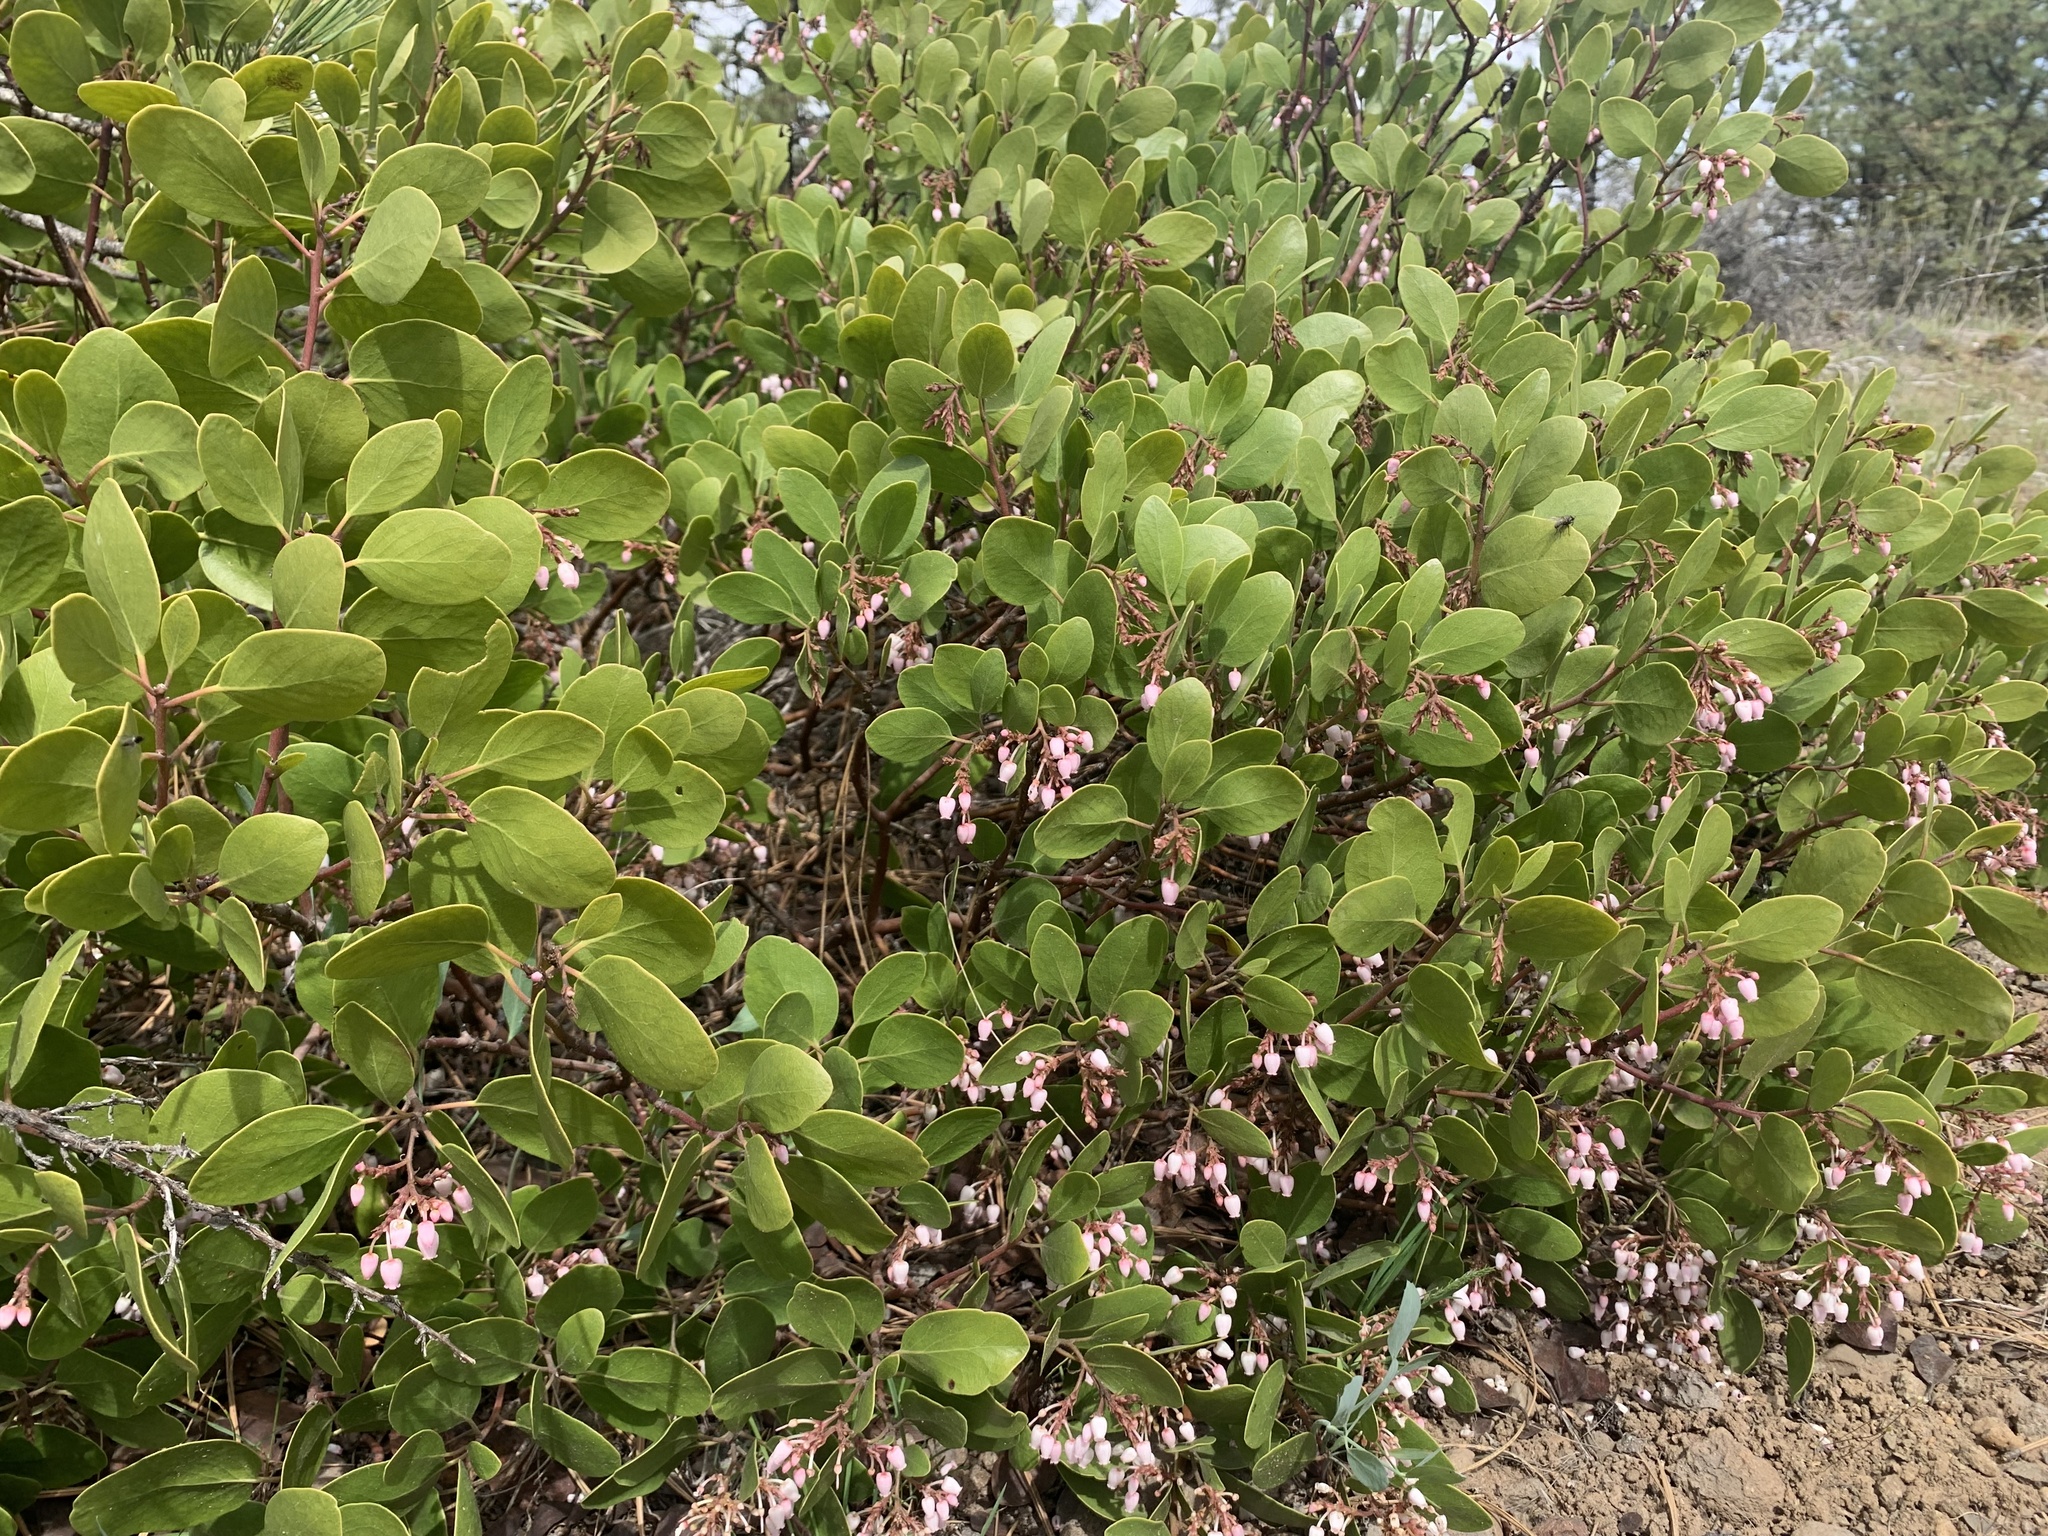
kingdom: Plantae
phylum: Tracheophyta
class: Magnoliopsida
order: Ericales
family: Ericaceae
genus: Arctostaphylos
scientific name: Arctostaphylos patula
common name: Green-leaf manzanita
